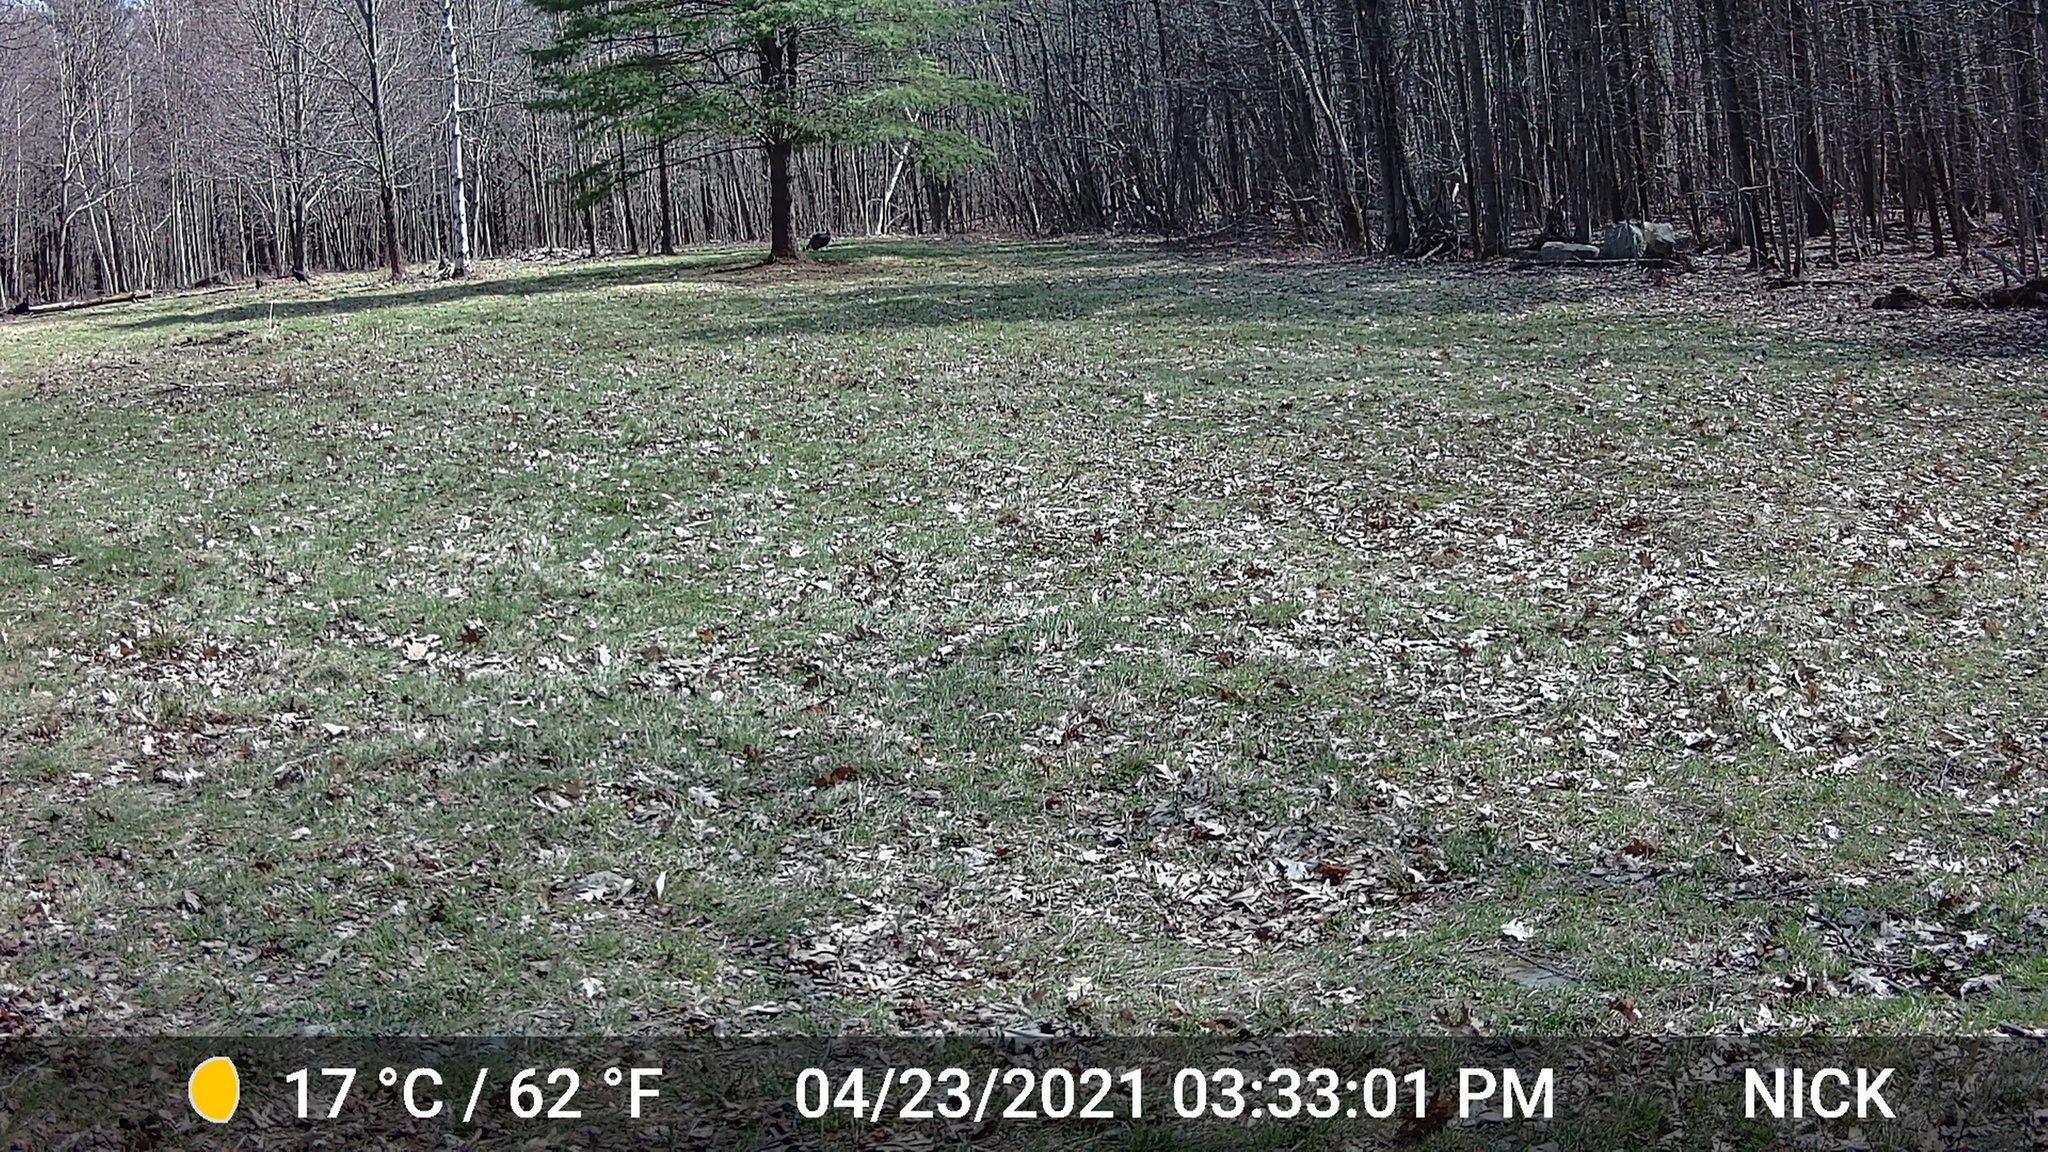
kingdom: Animalia
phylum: Chordata
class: Aves
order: Galliformes
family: Phasianidae
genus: Meleagris
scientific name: Meleagris gallopavo
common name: Wild turkey
